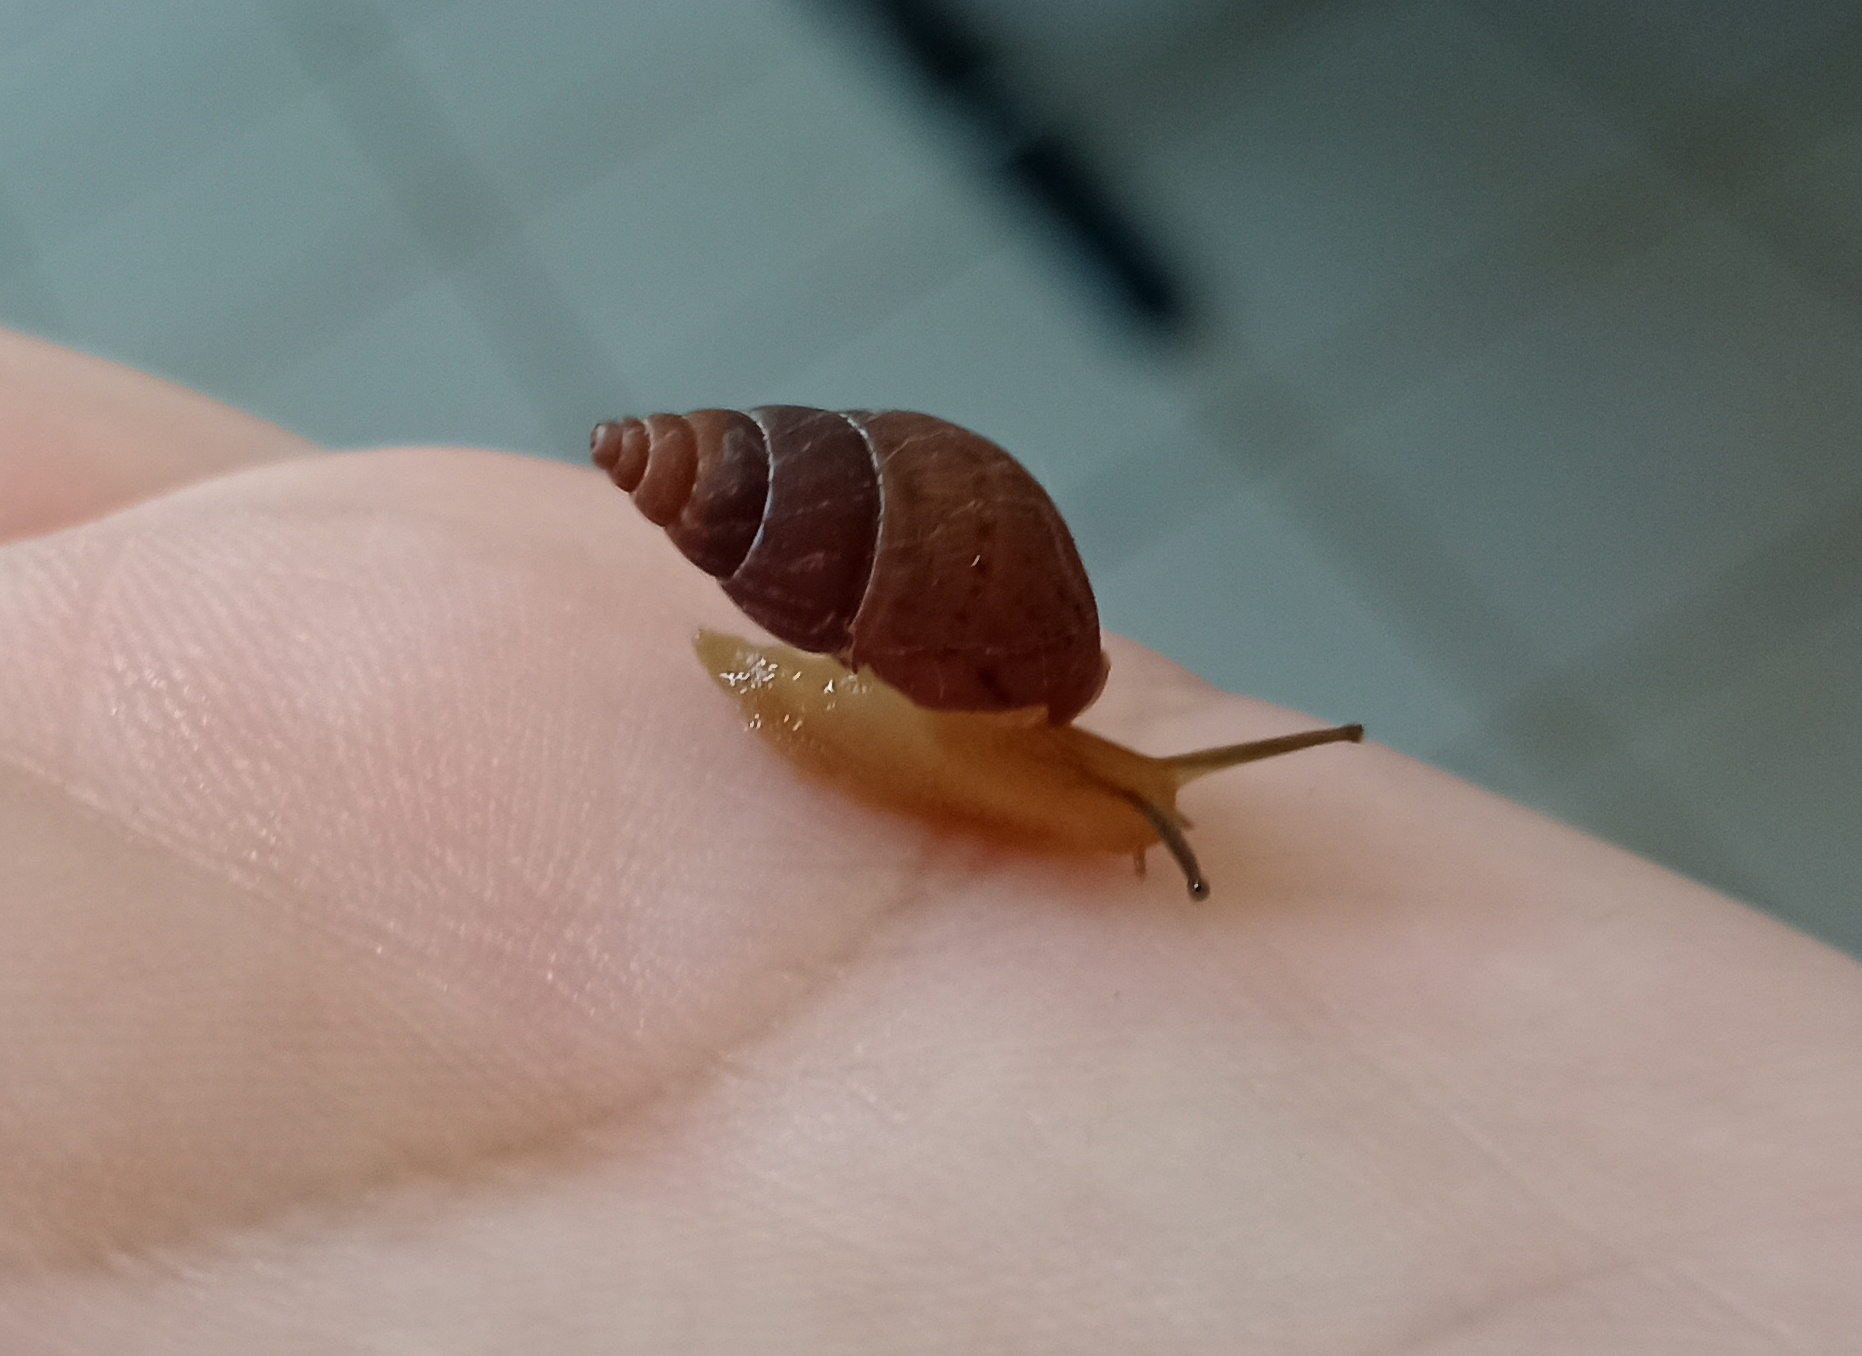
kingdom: Animalia
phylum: Mollusca
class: Gastropoda
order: Stylommatophora
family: Bulimulidae
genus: Bulimulus
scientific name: Bulimulus tenuissimus
